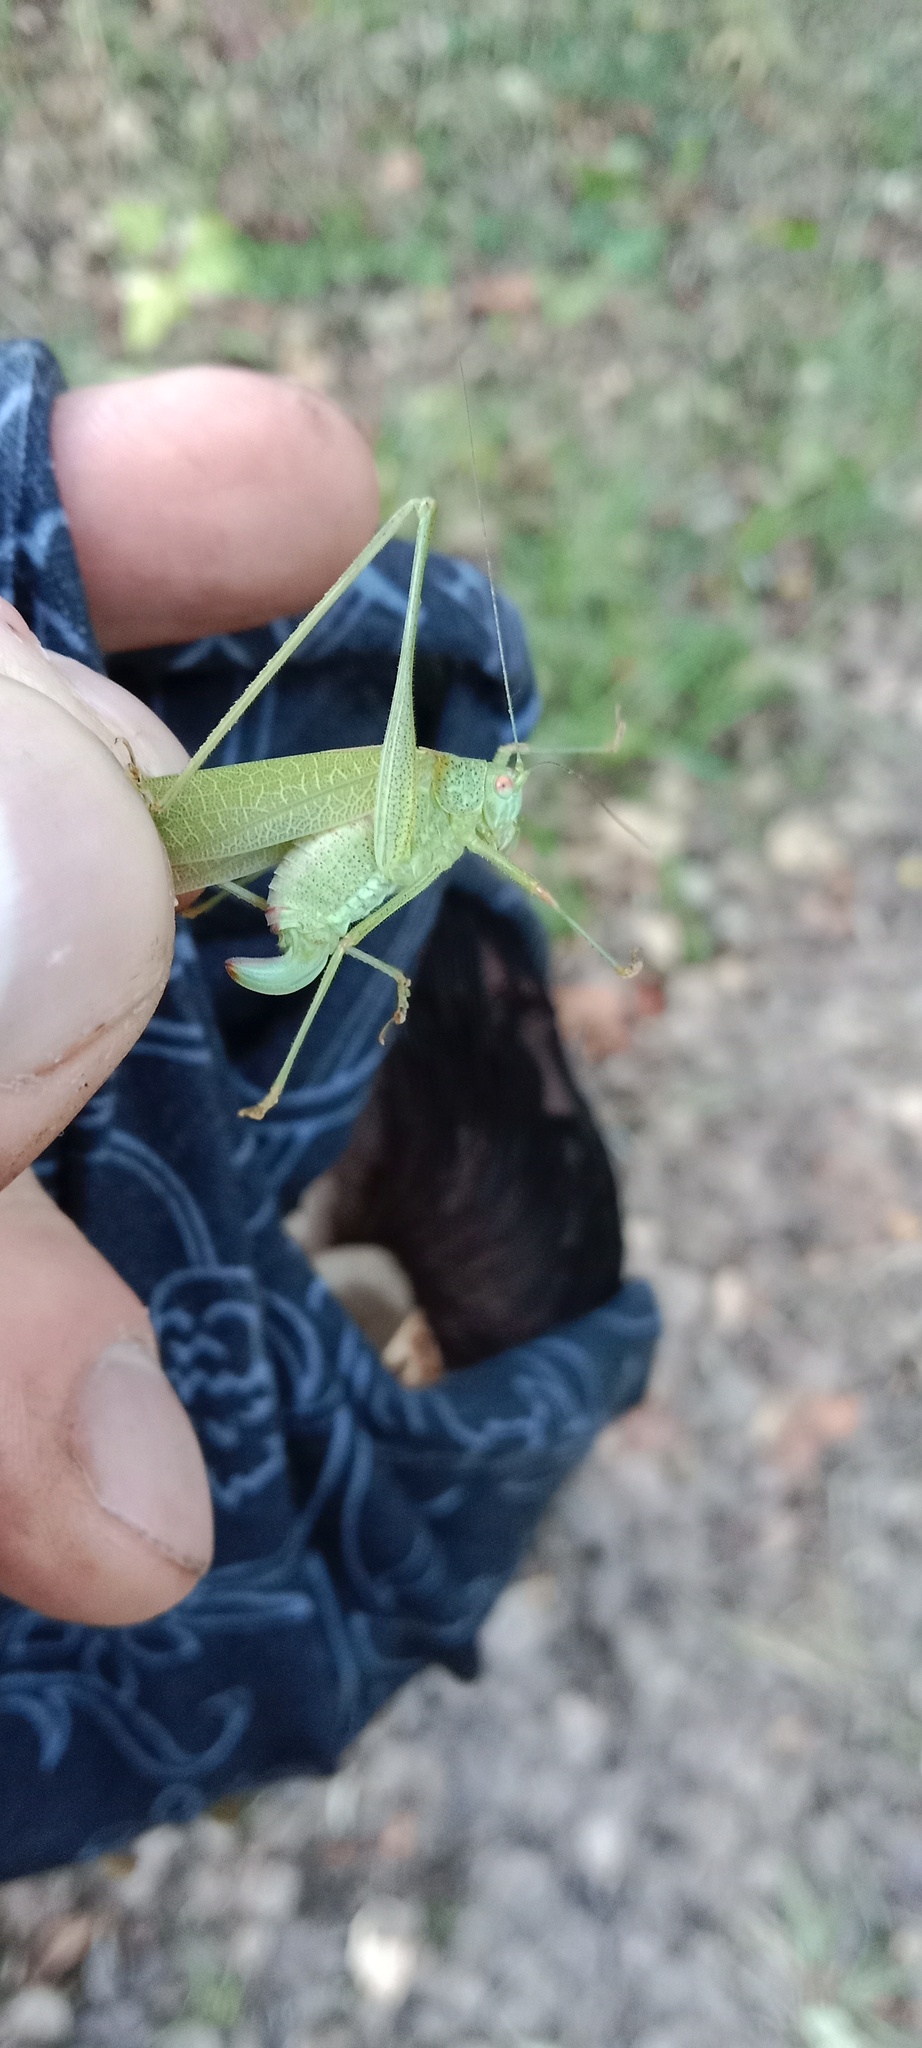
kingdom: Animalia
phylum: Arthropoda
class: Insecta
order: Orthoptera
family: Tettigoniidae
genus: Phaneroptera
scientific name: Phaneroptera nana
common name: Southern sickle bush-cricket
